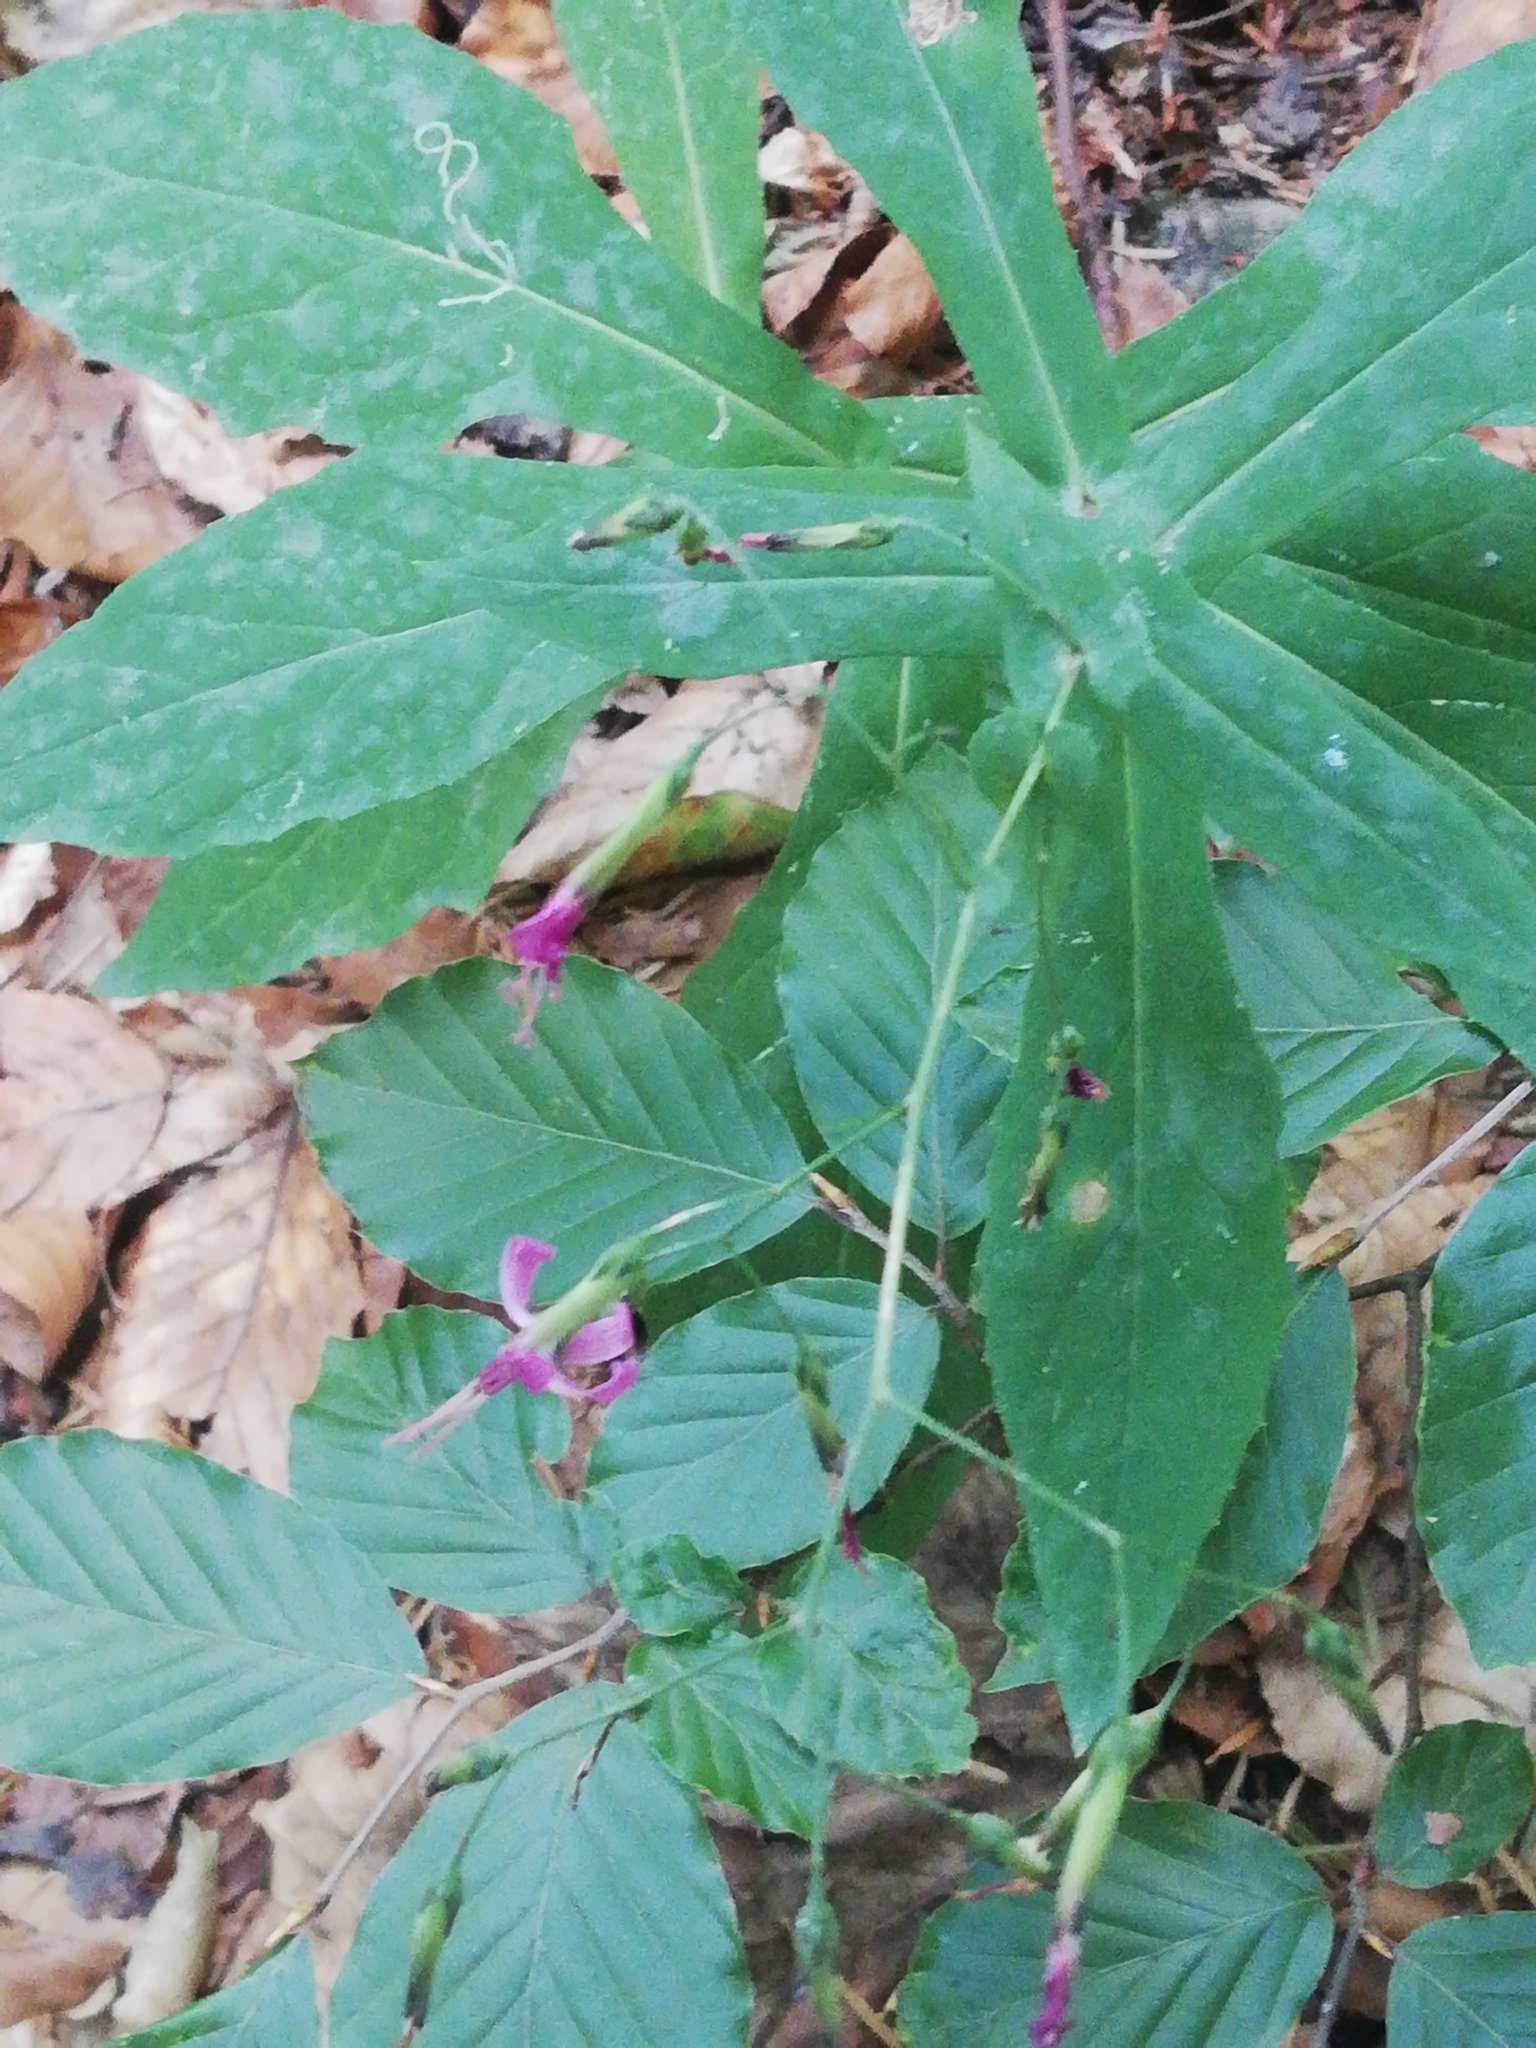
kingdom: Plantae
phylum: Tracheophyta
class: Magnoliopsida
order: Asterales
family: Asteraceae
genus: Prenanthes
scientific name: Prenanthes purpurea
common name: Purple lettuce
